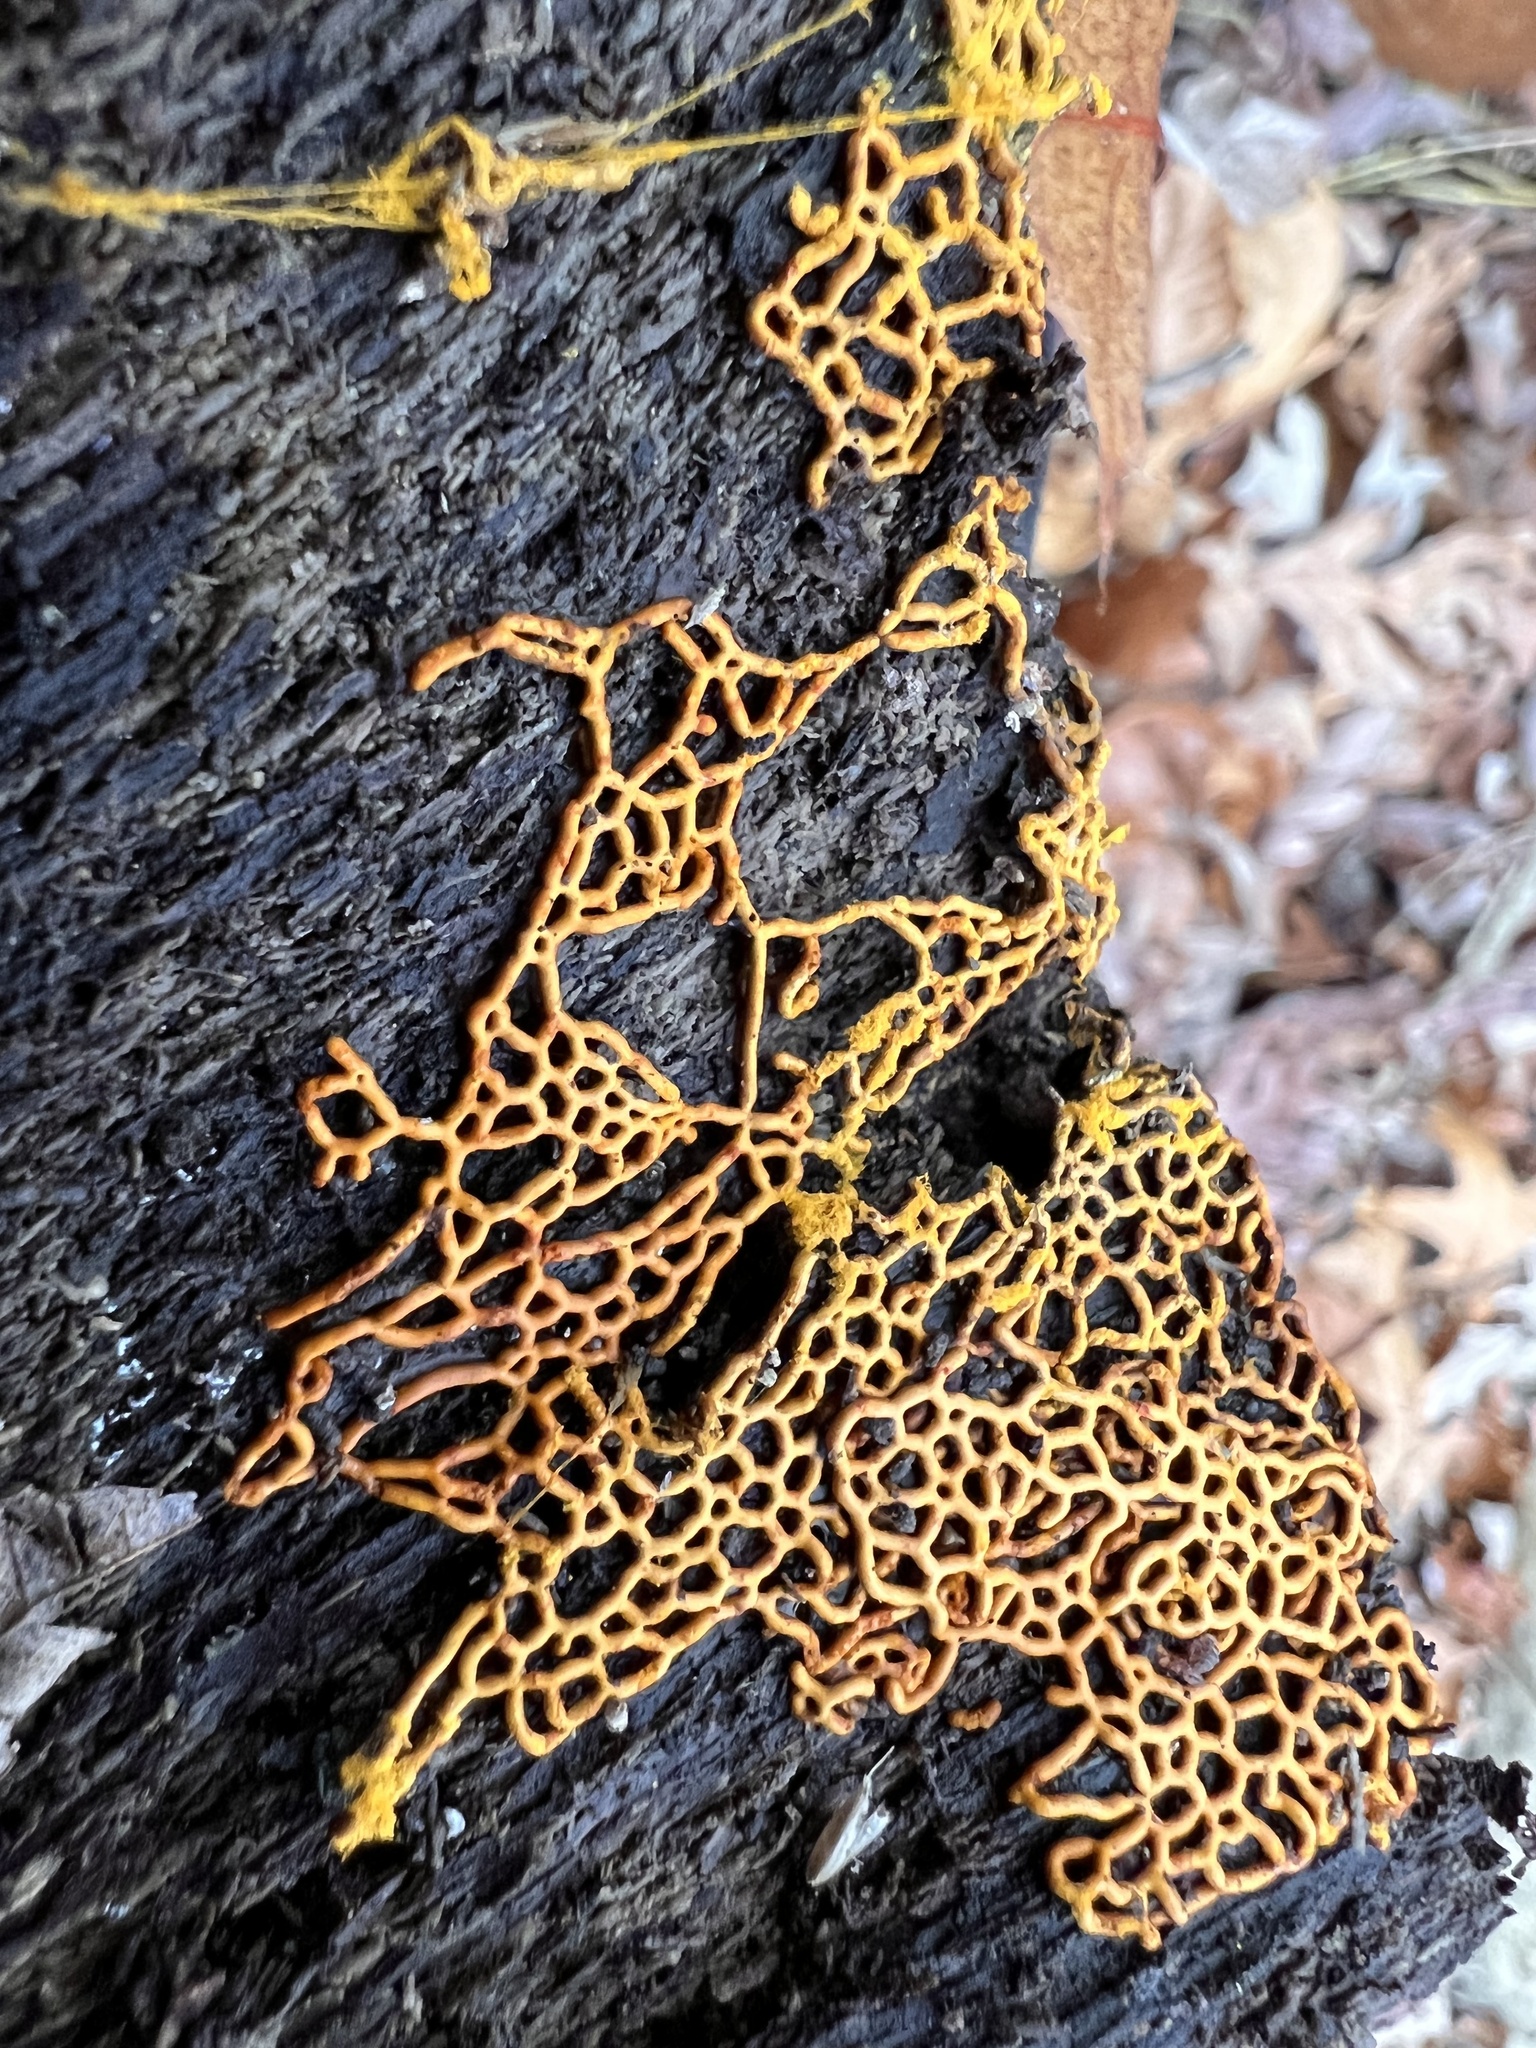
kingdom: Protozoa
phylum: Mycetozoa
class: Myxomycetes
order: Trichiales
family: Arcyriaceae
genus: Hemitrichia
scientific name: Hemitrichia serpula
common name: Pretzel slime mold
